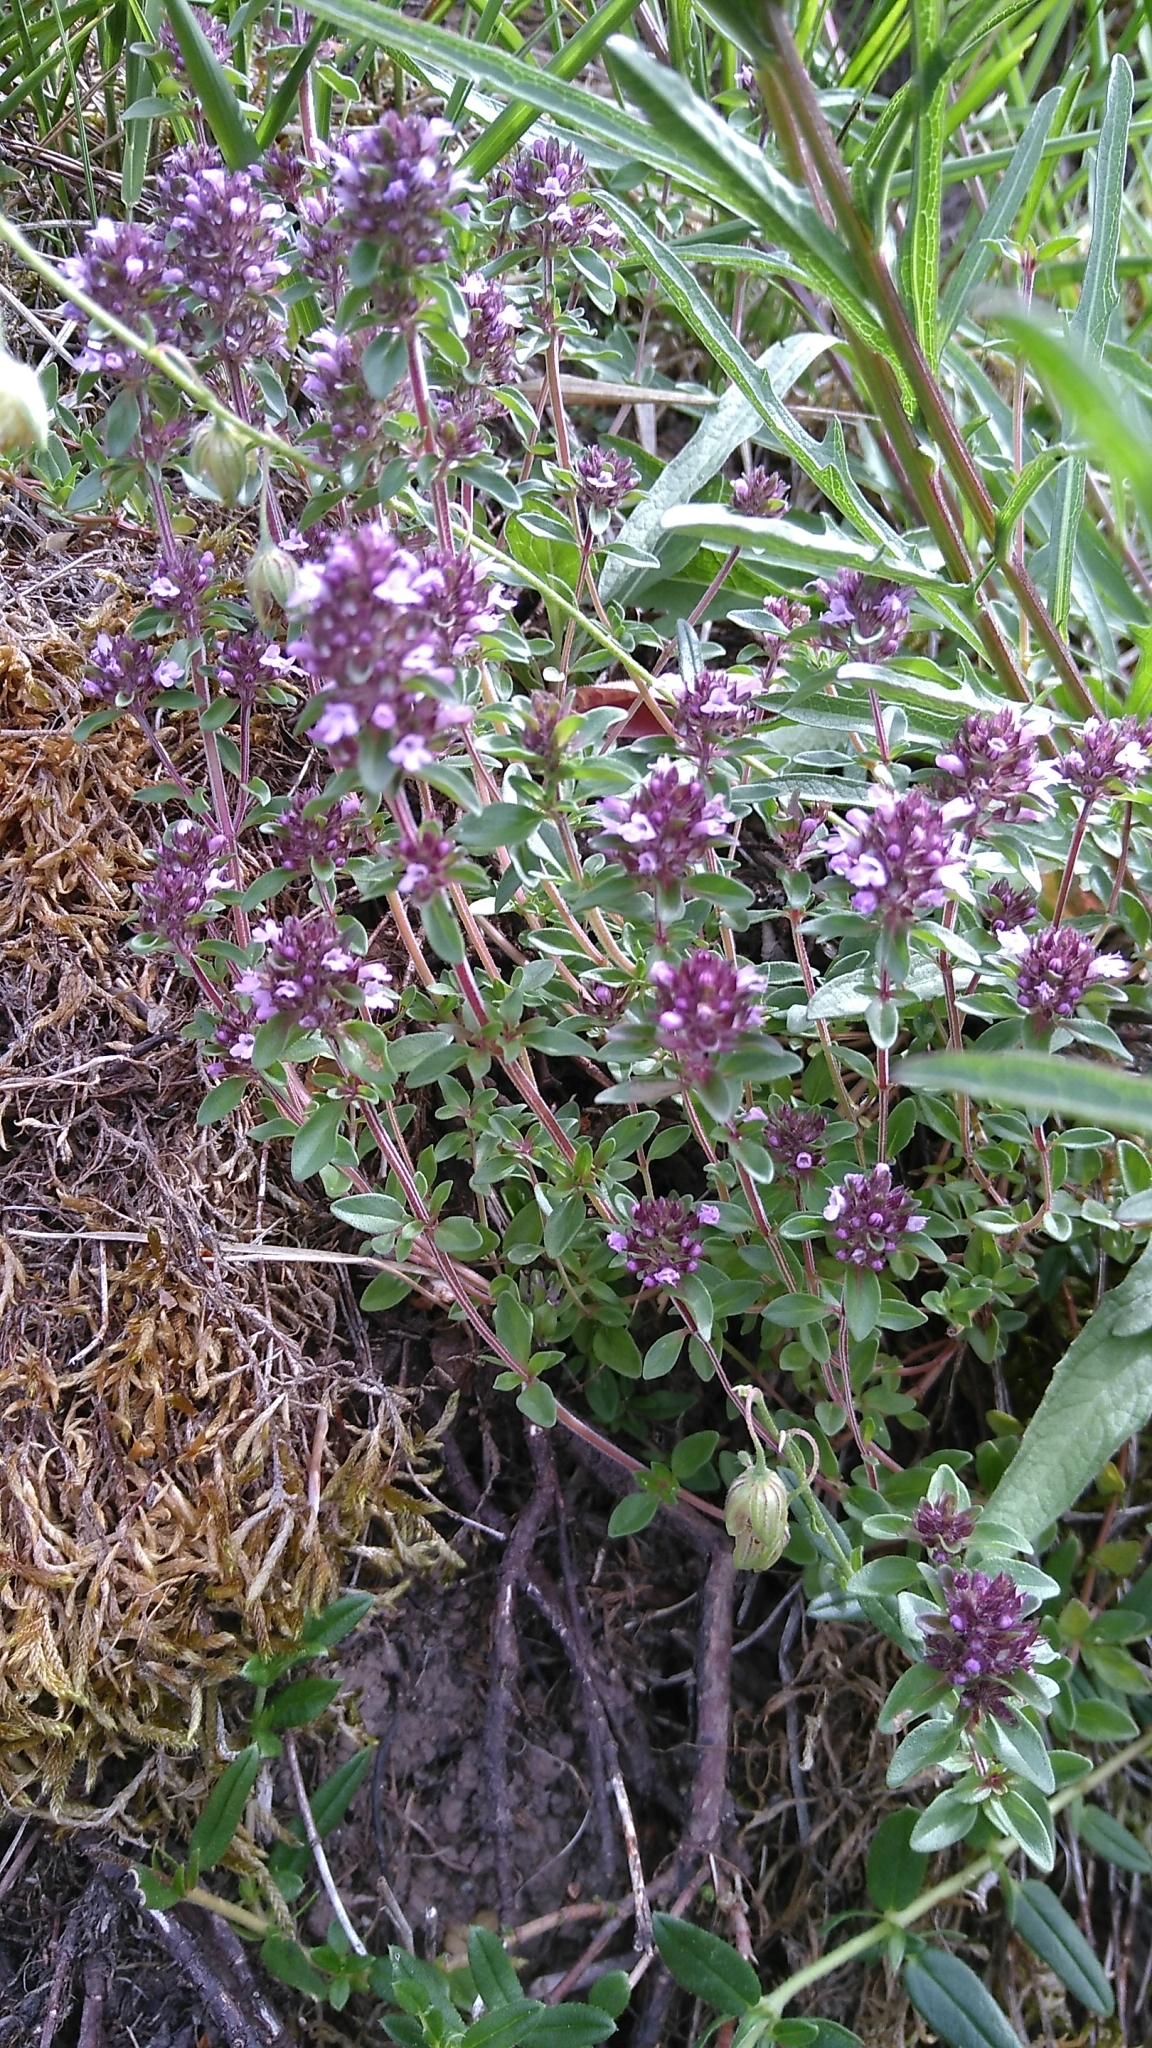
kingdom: Plantae
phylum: Tracheophyta
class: Magnoliopsida
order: Lamiales
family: Lamiaceae
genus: Thymus
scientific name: Thymus pulegioides
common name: Large thyme
